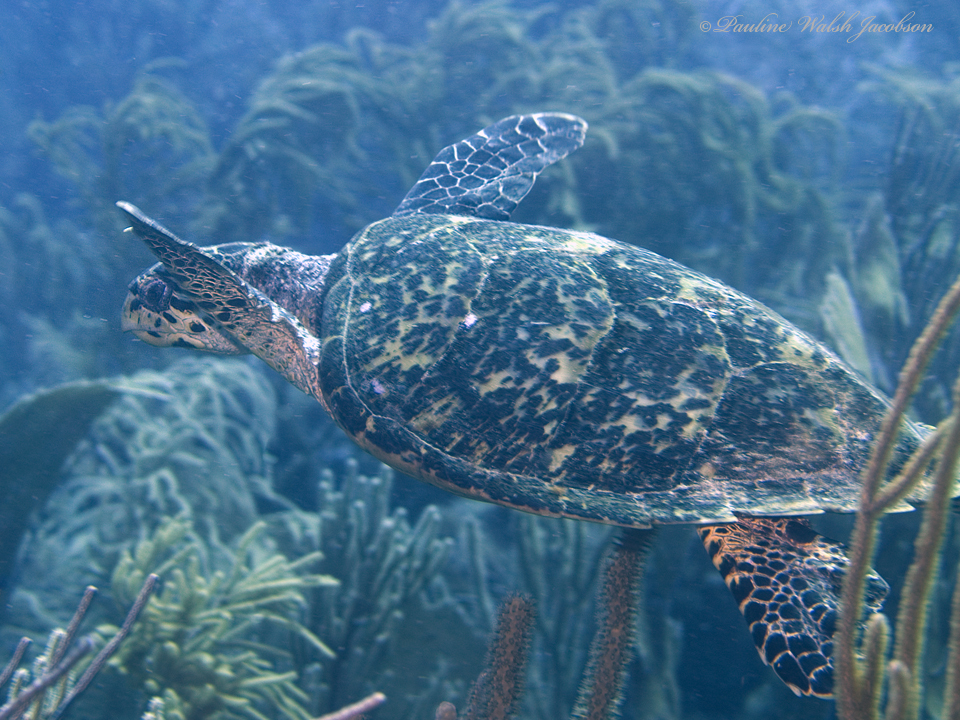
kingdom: Animalia
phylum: Chordata
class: Testudines
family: Cheloniidae
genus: Eretmochelys
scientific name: Eretmochelys imbricata
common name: Hawksbill turtle
